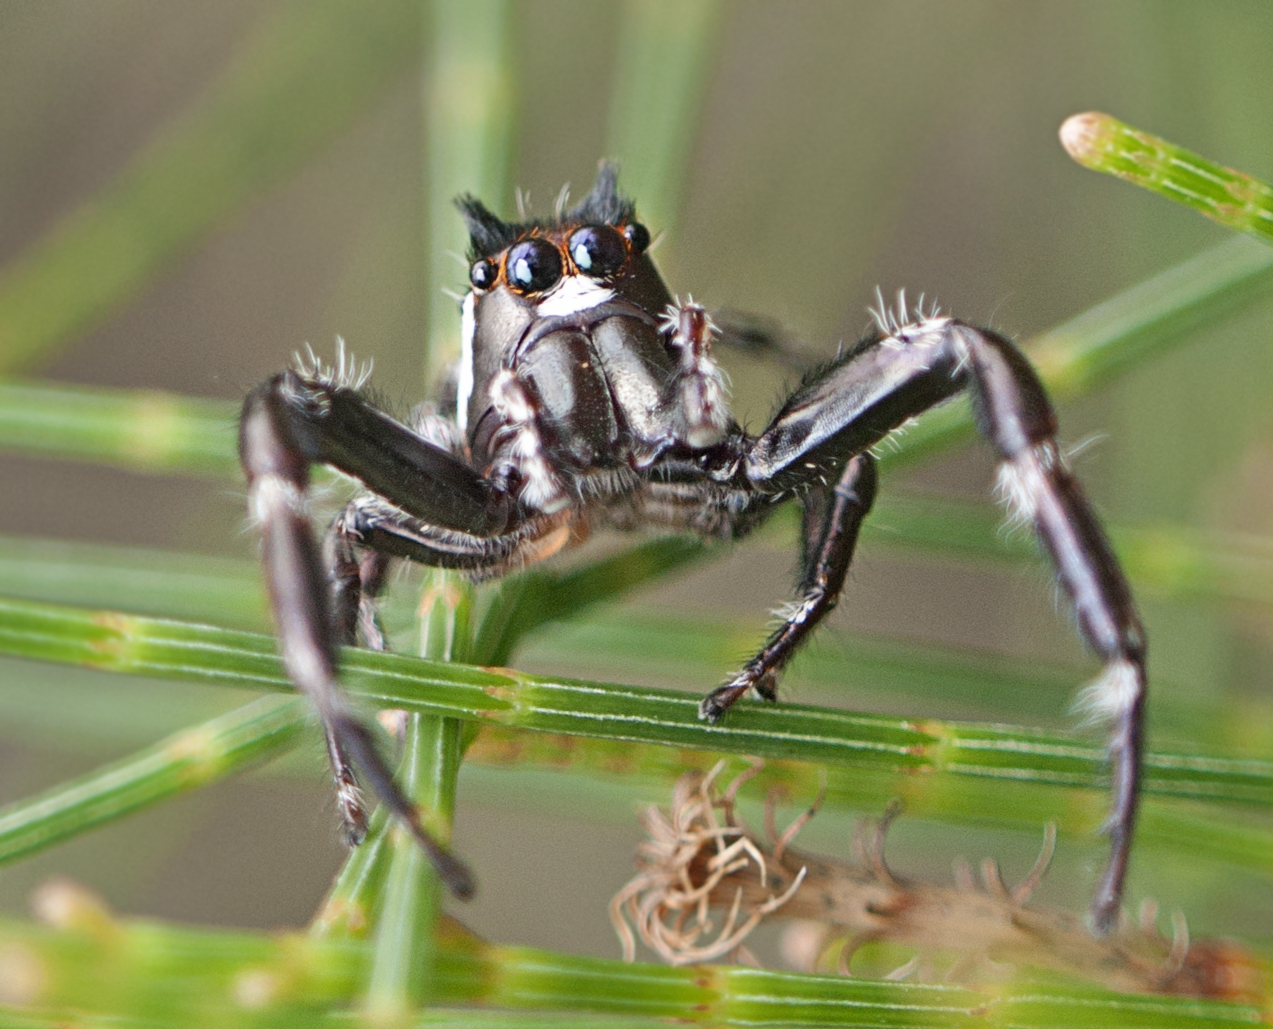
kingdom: Animalia
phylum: Arthropoda
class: Arachnida
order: Araneae
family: Salticidae
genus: Sandalodes
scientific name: Sandalodes bipenicillatus
